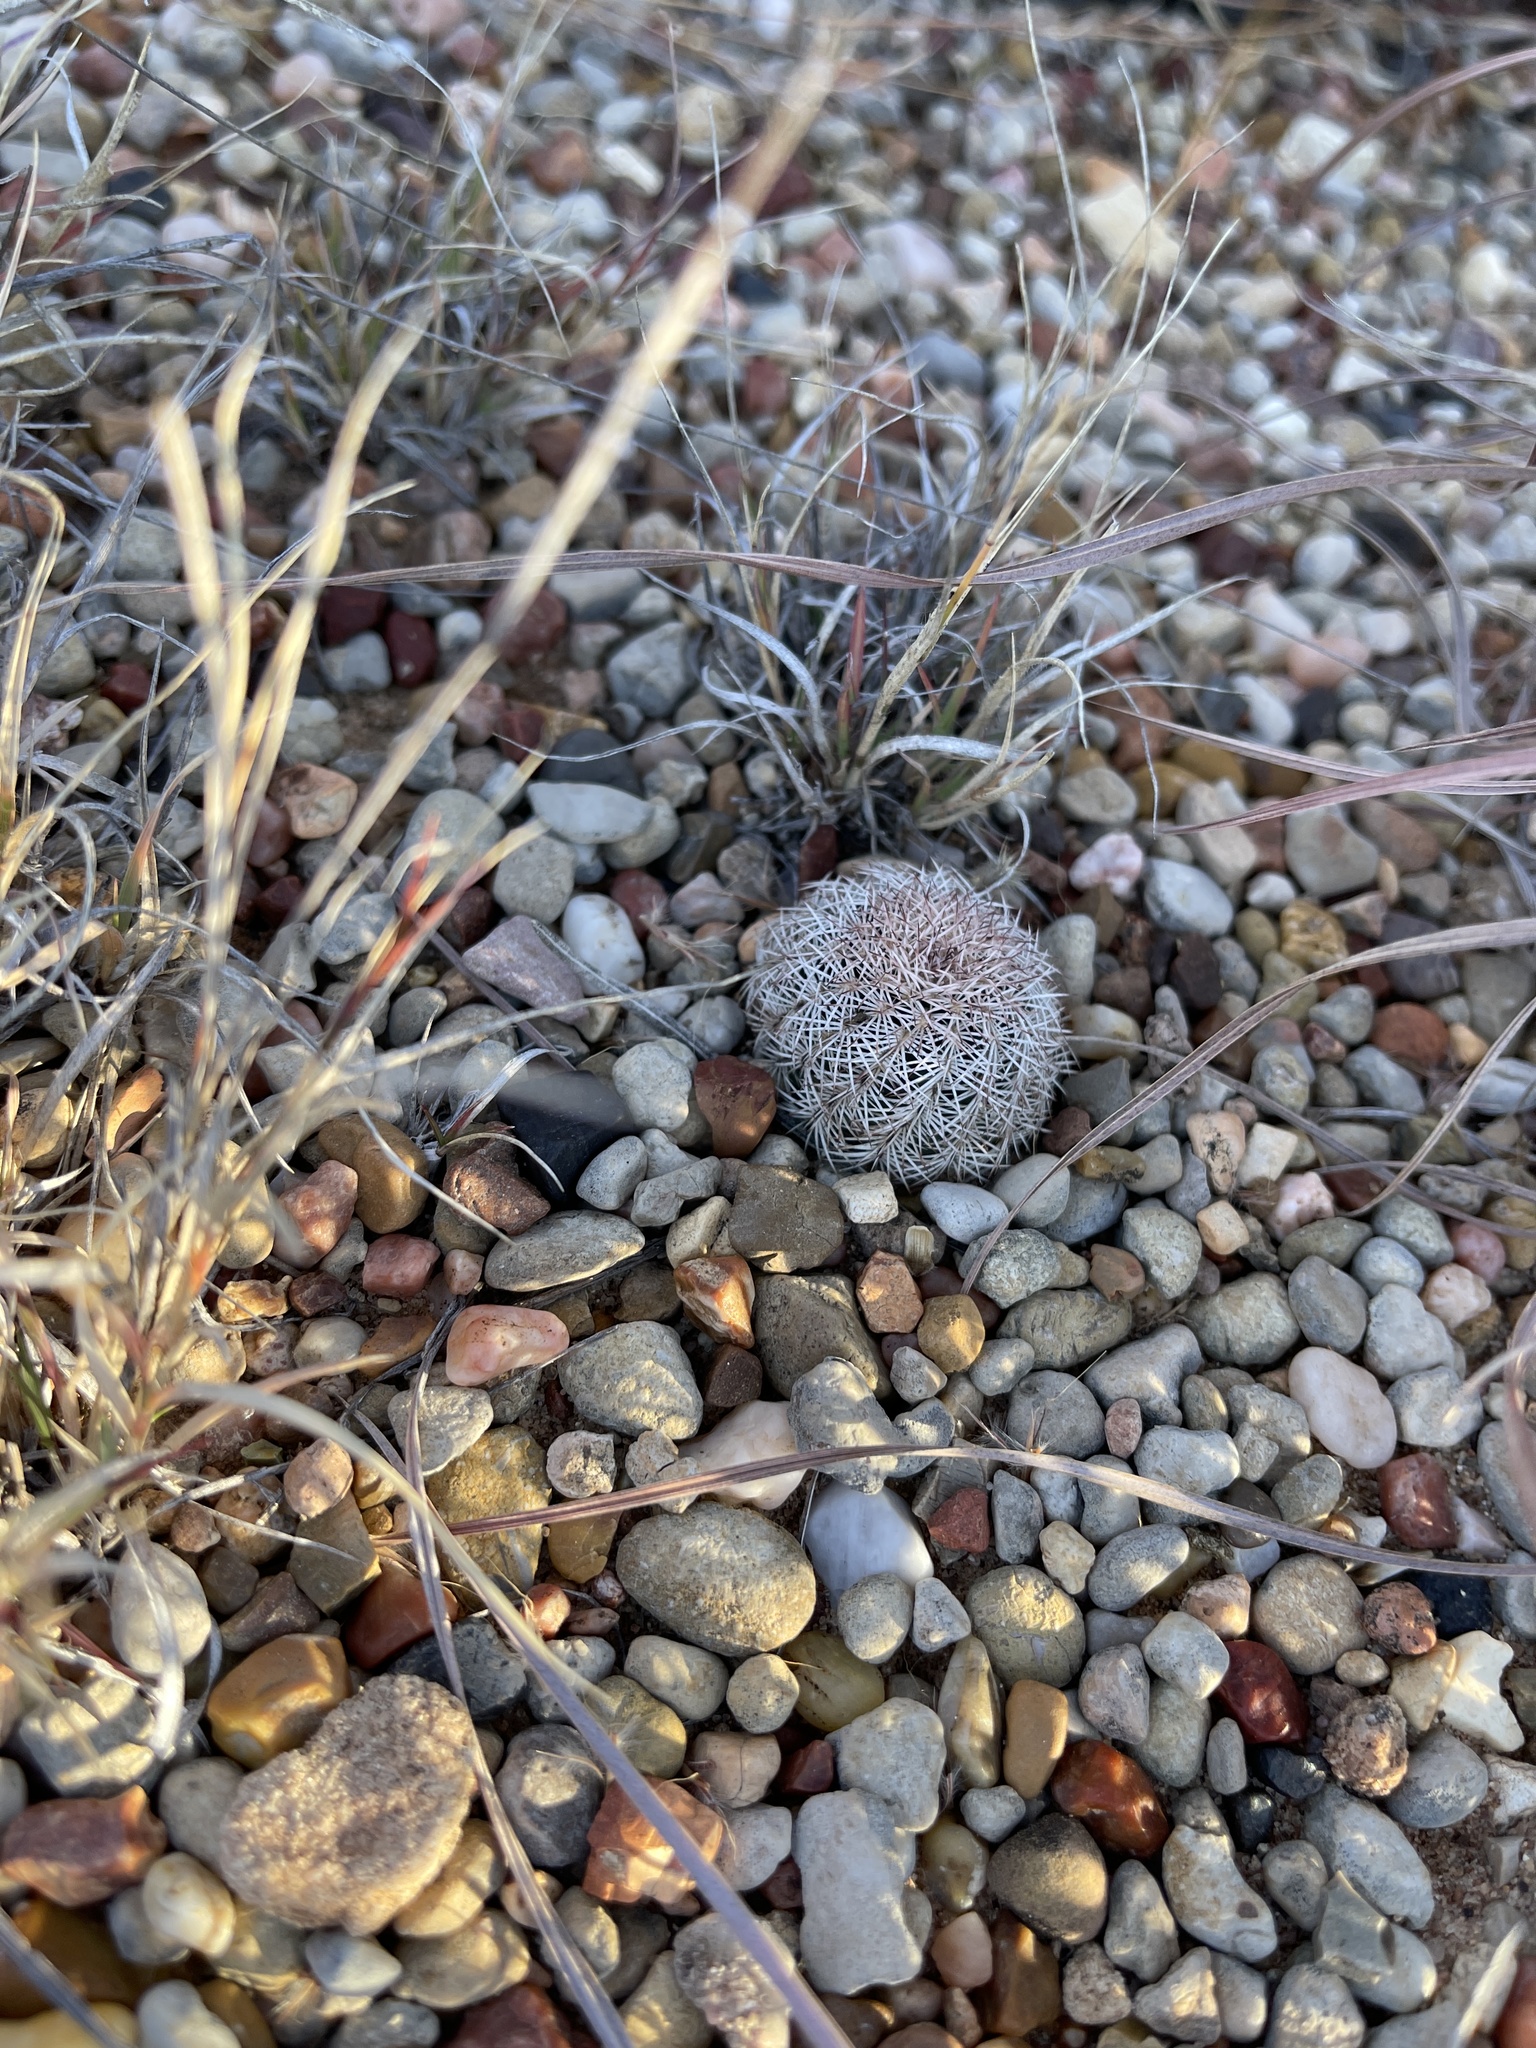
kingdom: Plantae
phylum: Tracheophyta
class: Magnoliopsida
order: Caryophyllales
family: Cactaceae
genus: Echinocereus
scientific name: Echinocereus reichenbachii
